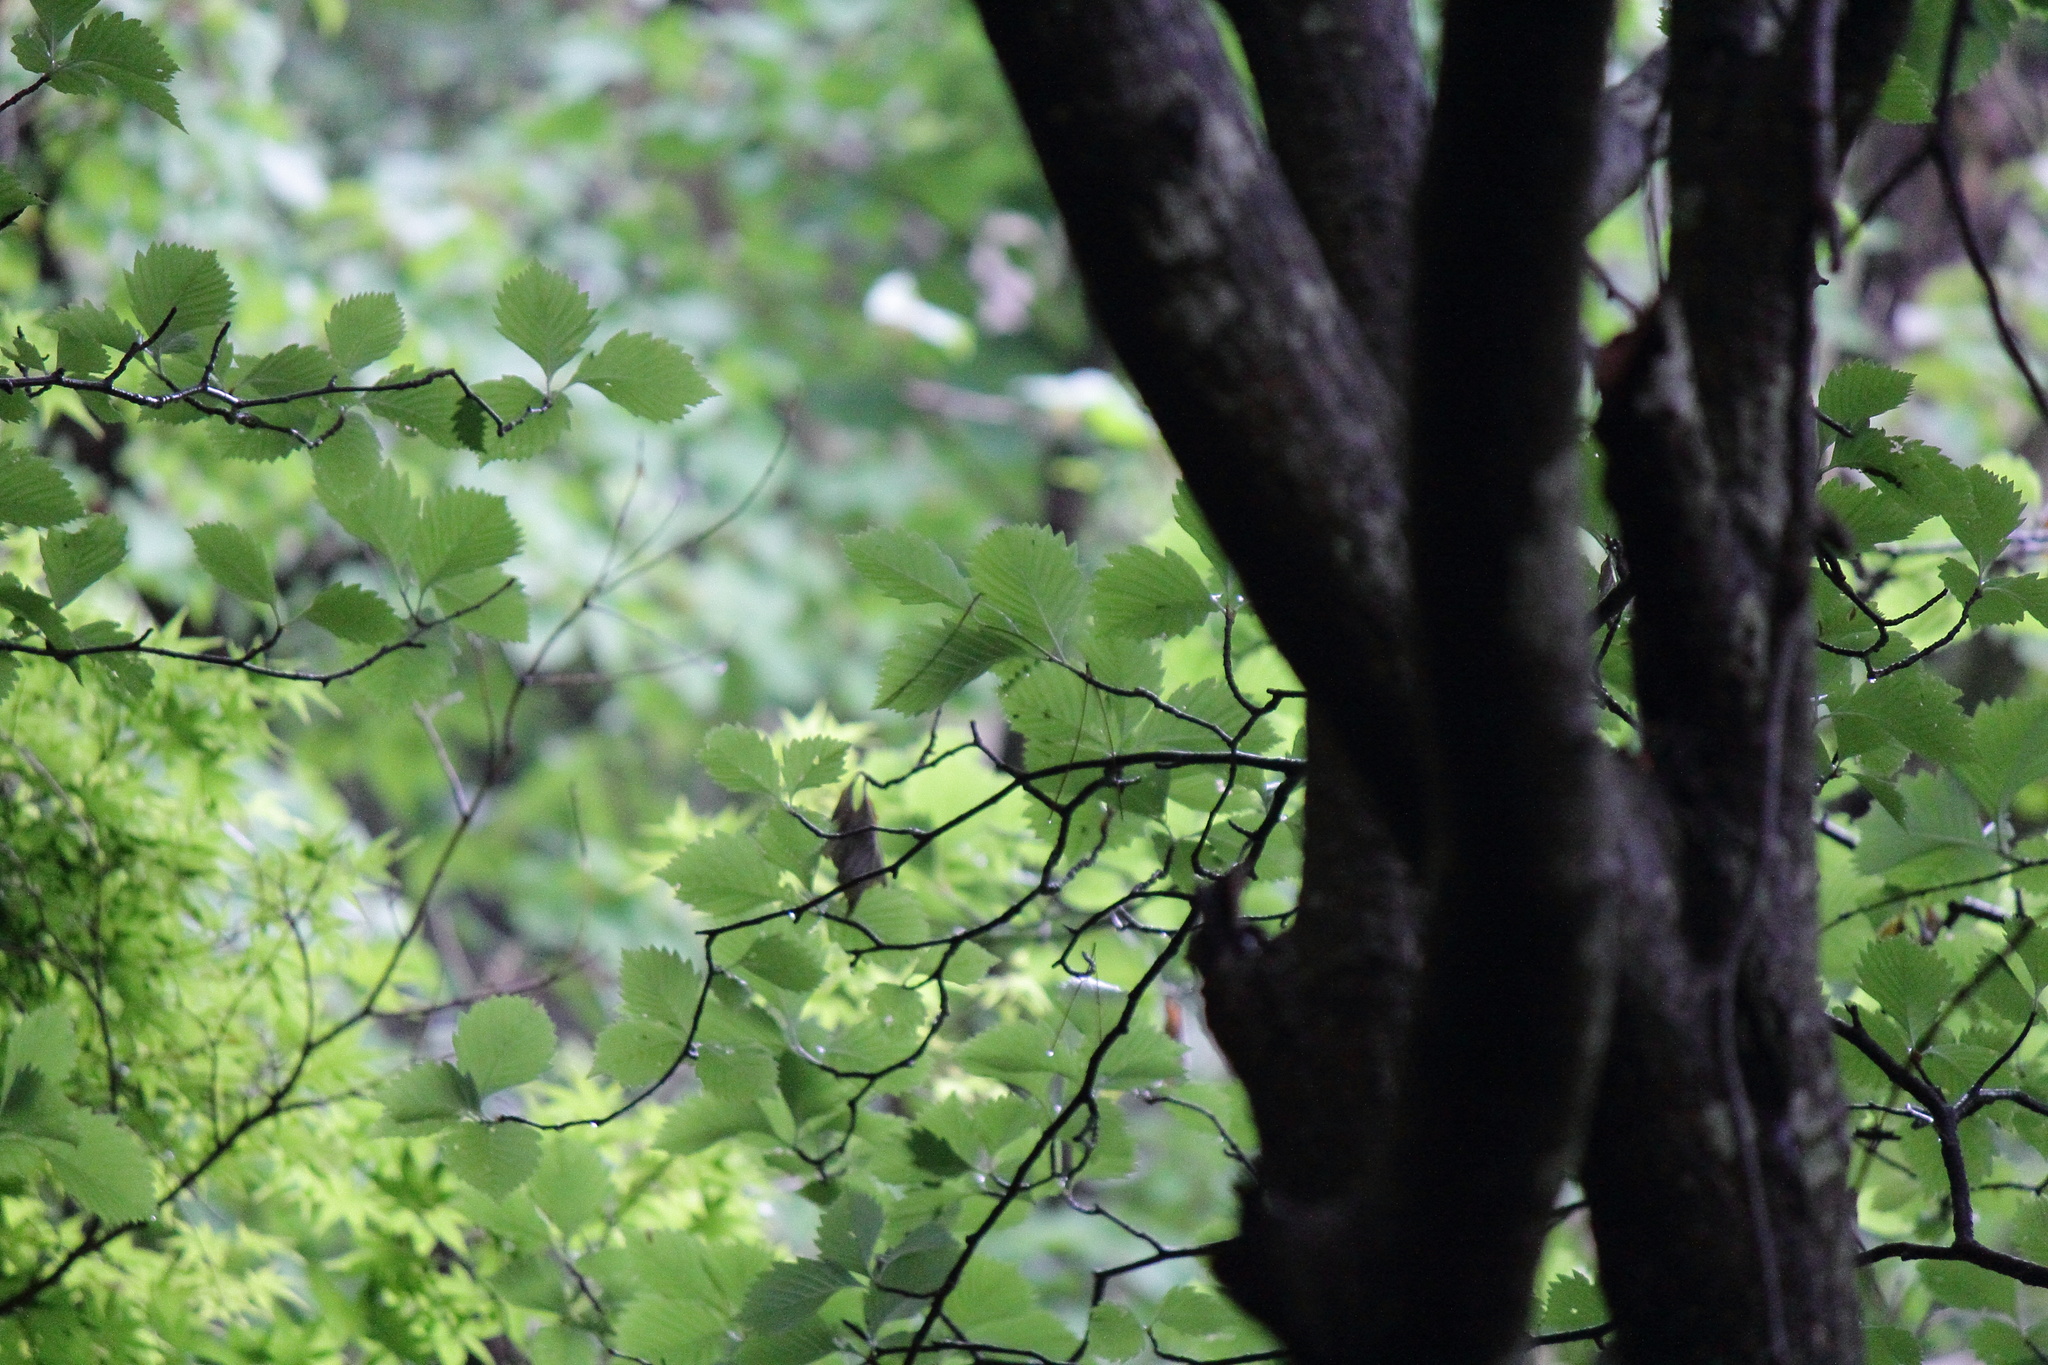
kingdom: Plantae
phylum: Tracheophyta
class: Magnoliopsida
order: Rosales
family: Rosaceae
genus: Sorbus
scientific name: Sorbus japonica
